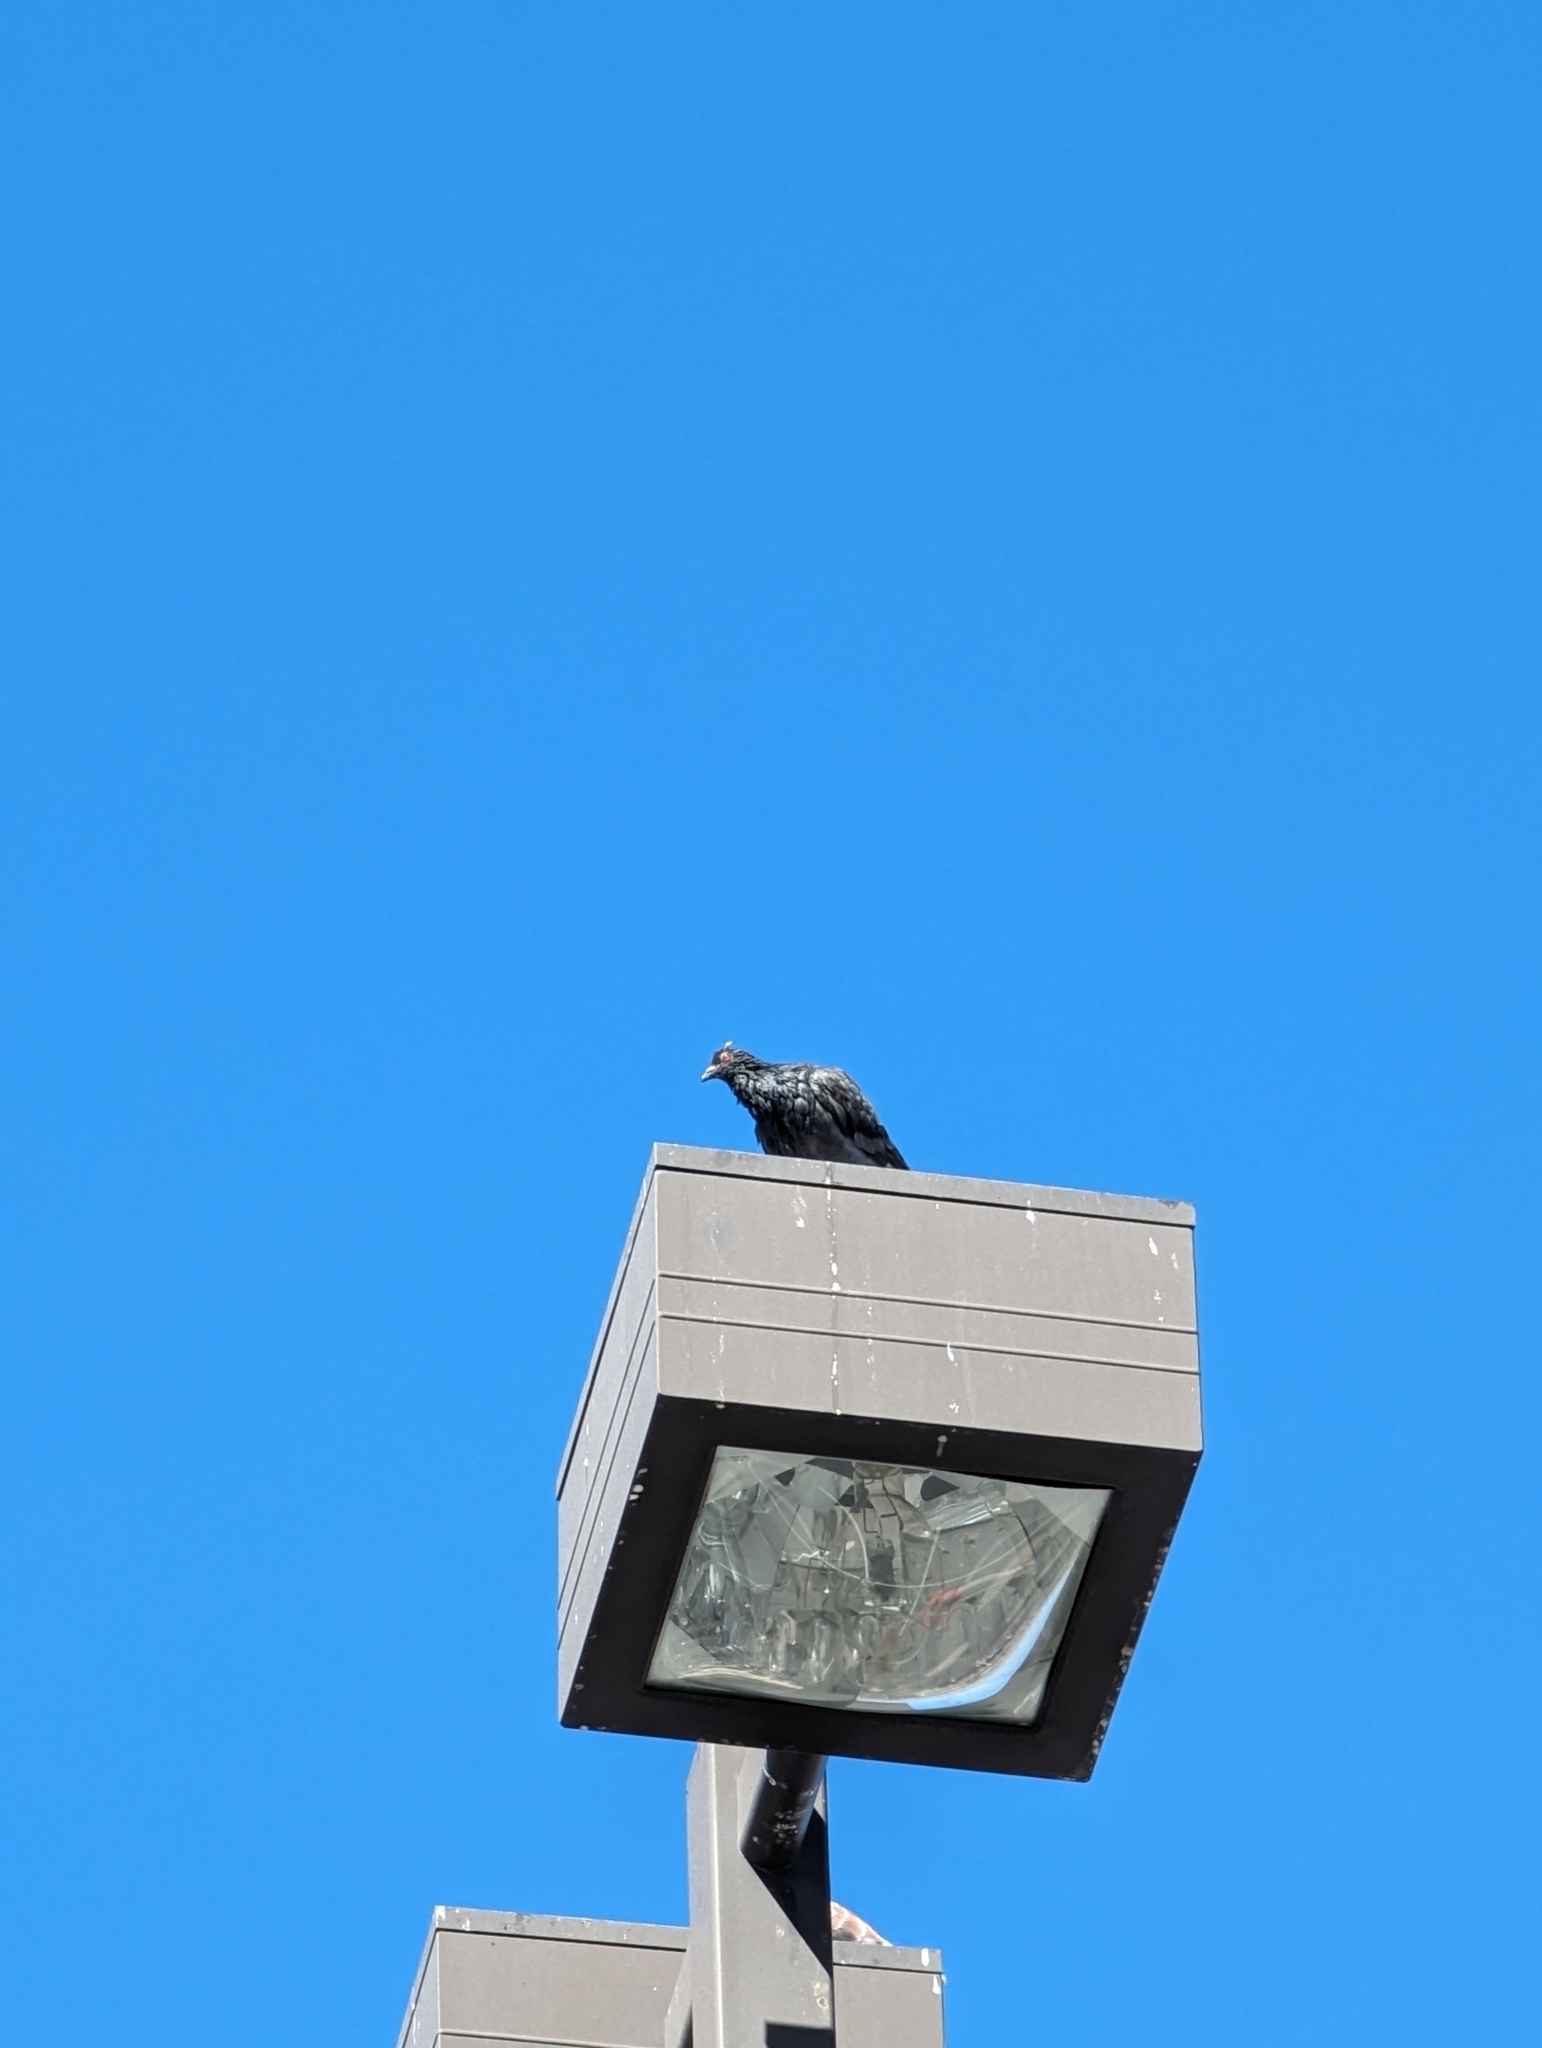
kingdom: Animalia
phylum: Chordata
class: Aves
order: Columbiformes
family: Columbidae
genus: Columba
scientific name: Columba livia
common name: Rock pigeon
